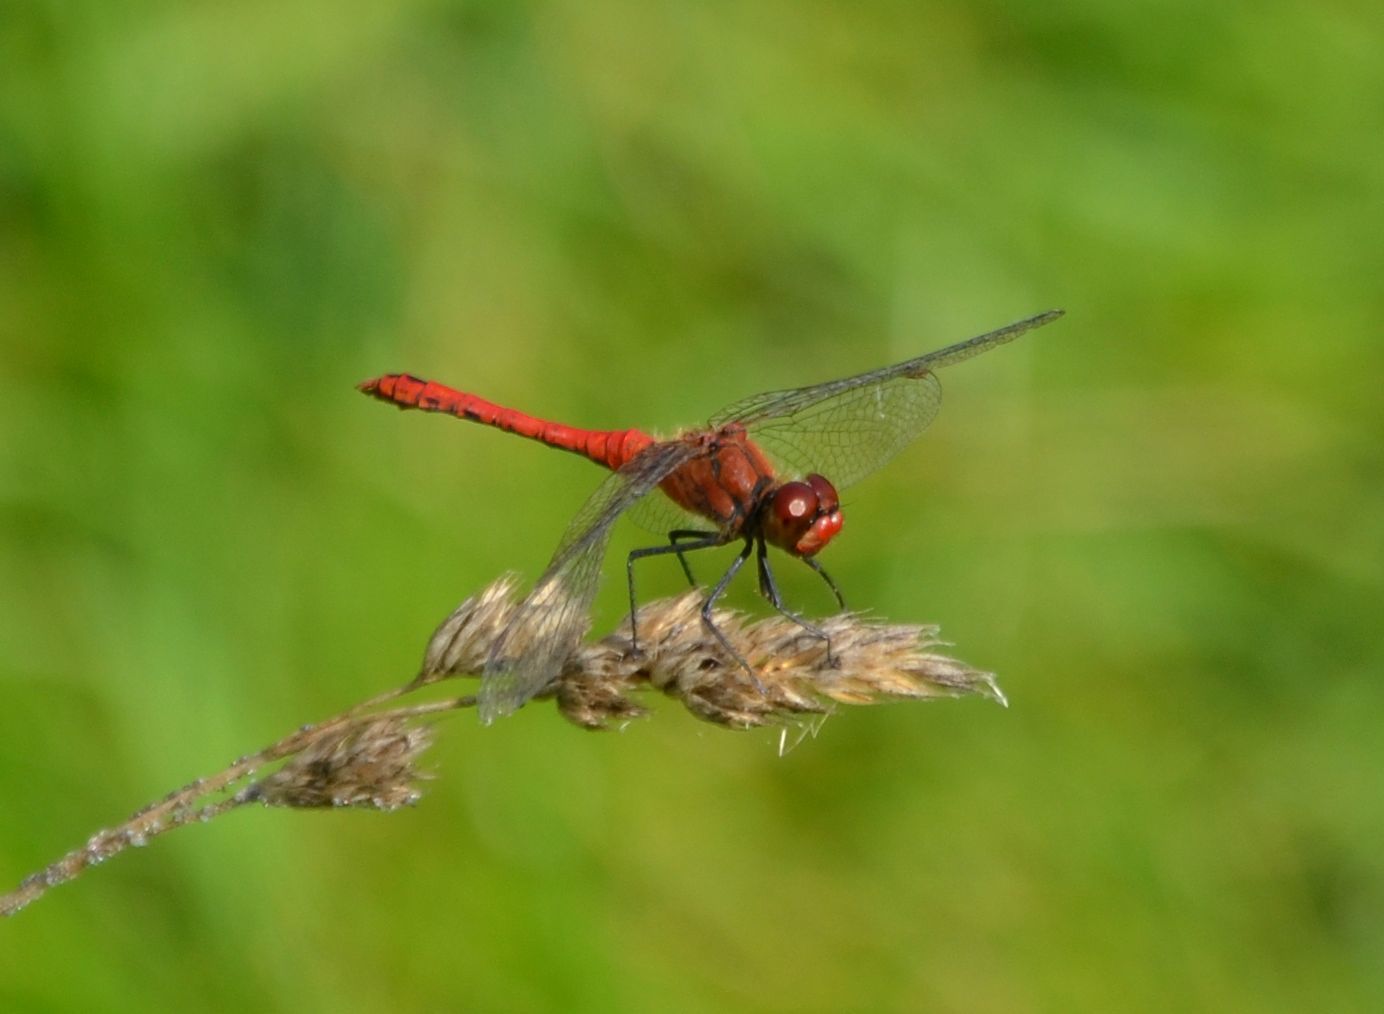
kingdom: Animalia
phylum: Arthropoda
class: Insecta
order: Odonata
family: Libellulidae
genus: Sympetrum
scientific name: Sympetrum sanguineum
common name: Ruddy darter
